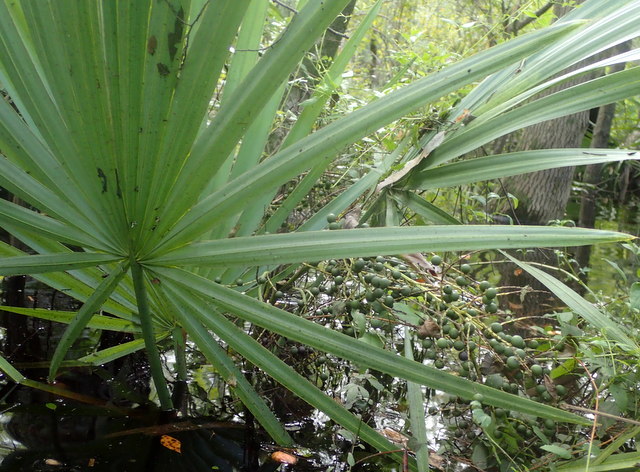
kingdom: Plantae
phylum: Tracheophyta
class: Liliopsida
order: Arecales
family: Arecaceae
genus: Sabal
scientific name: Sabal minor
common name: Dwarf palmetto
